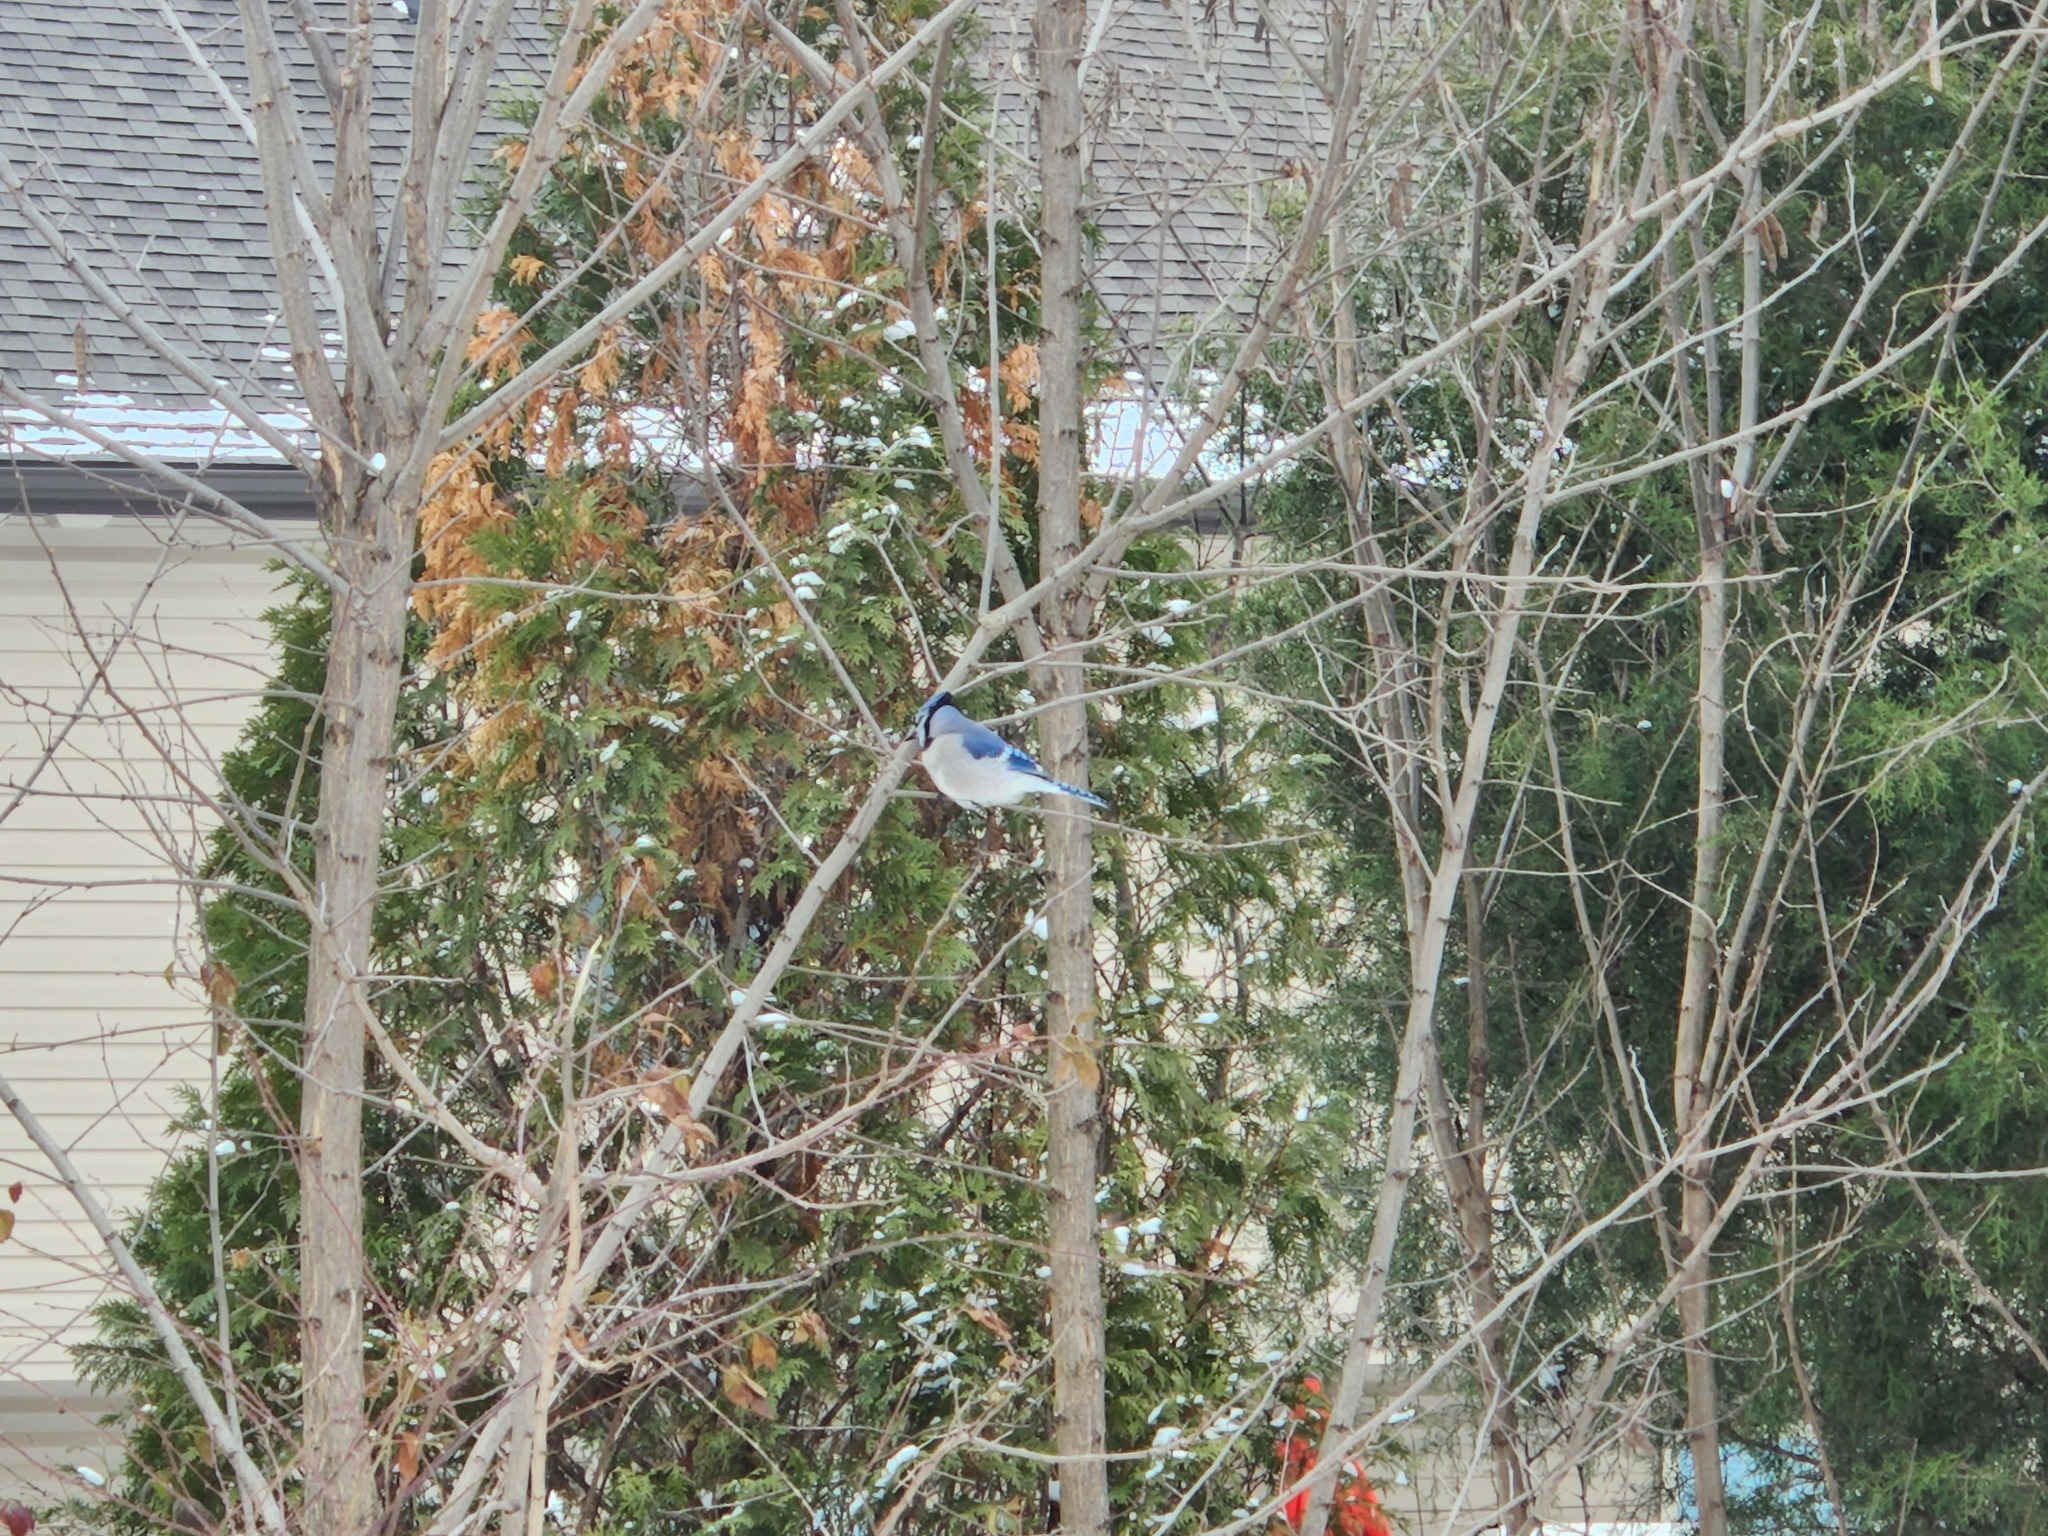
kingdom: Animalia
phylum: Chordata
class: Aves
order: Passeriformes
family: Corvidae
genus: Cyanocitta
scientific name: Cyanocitta cristata
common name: Blue jay
